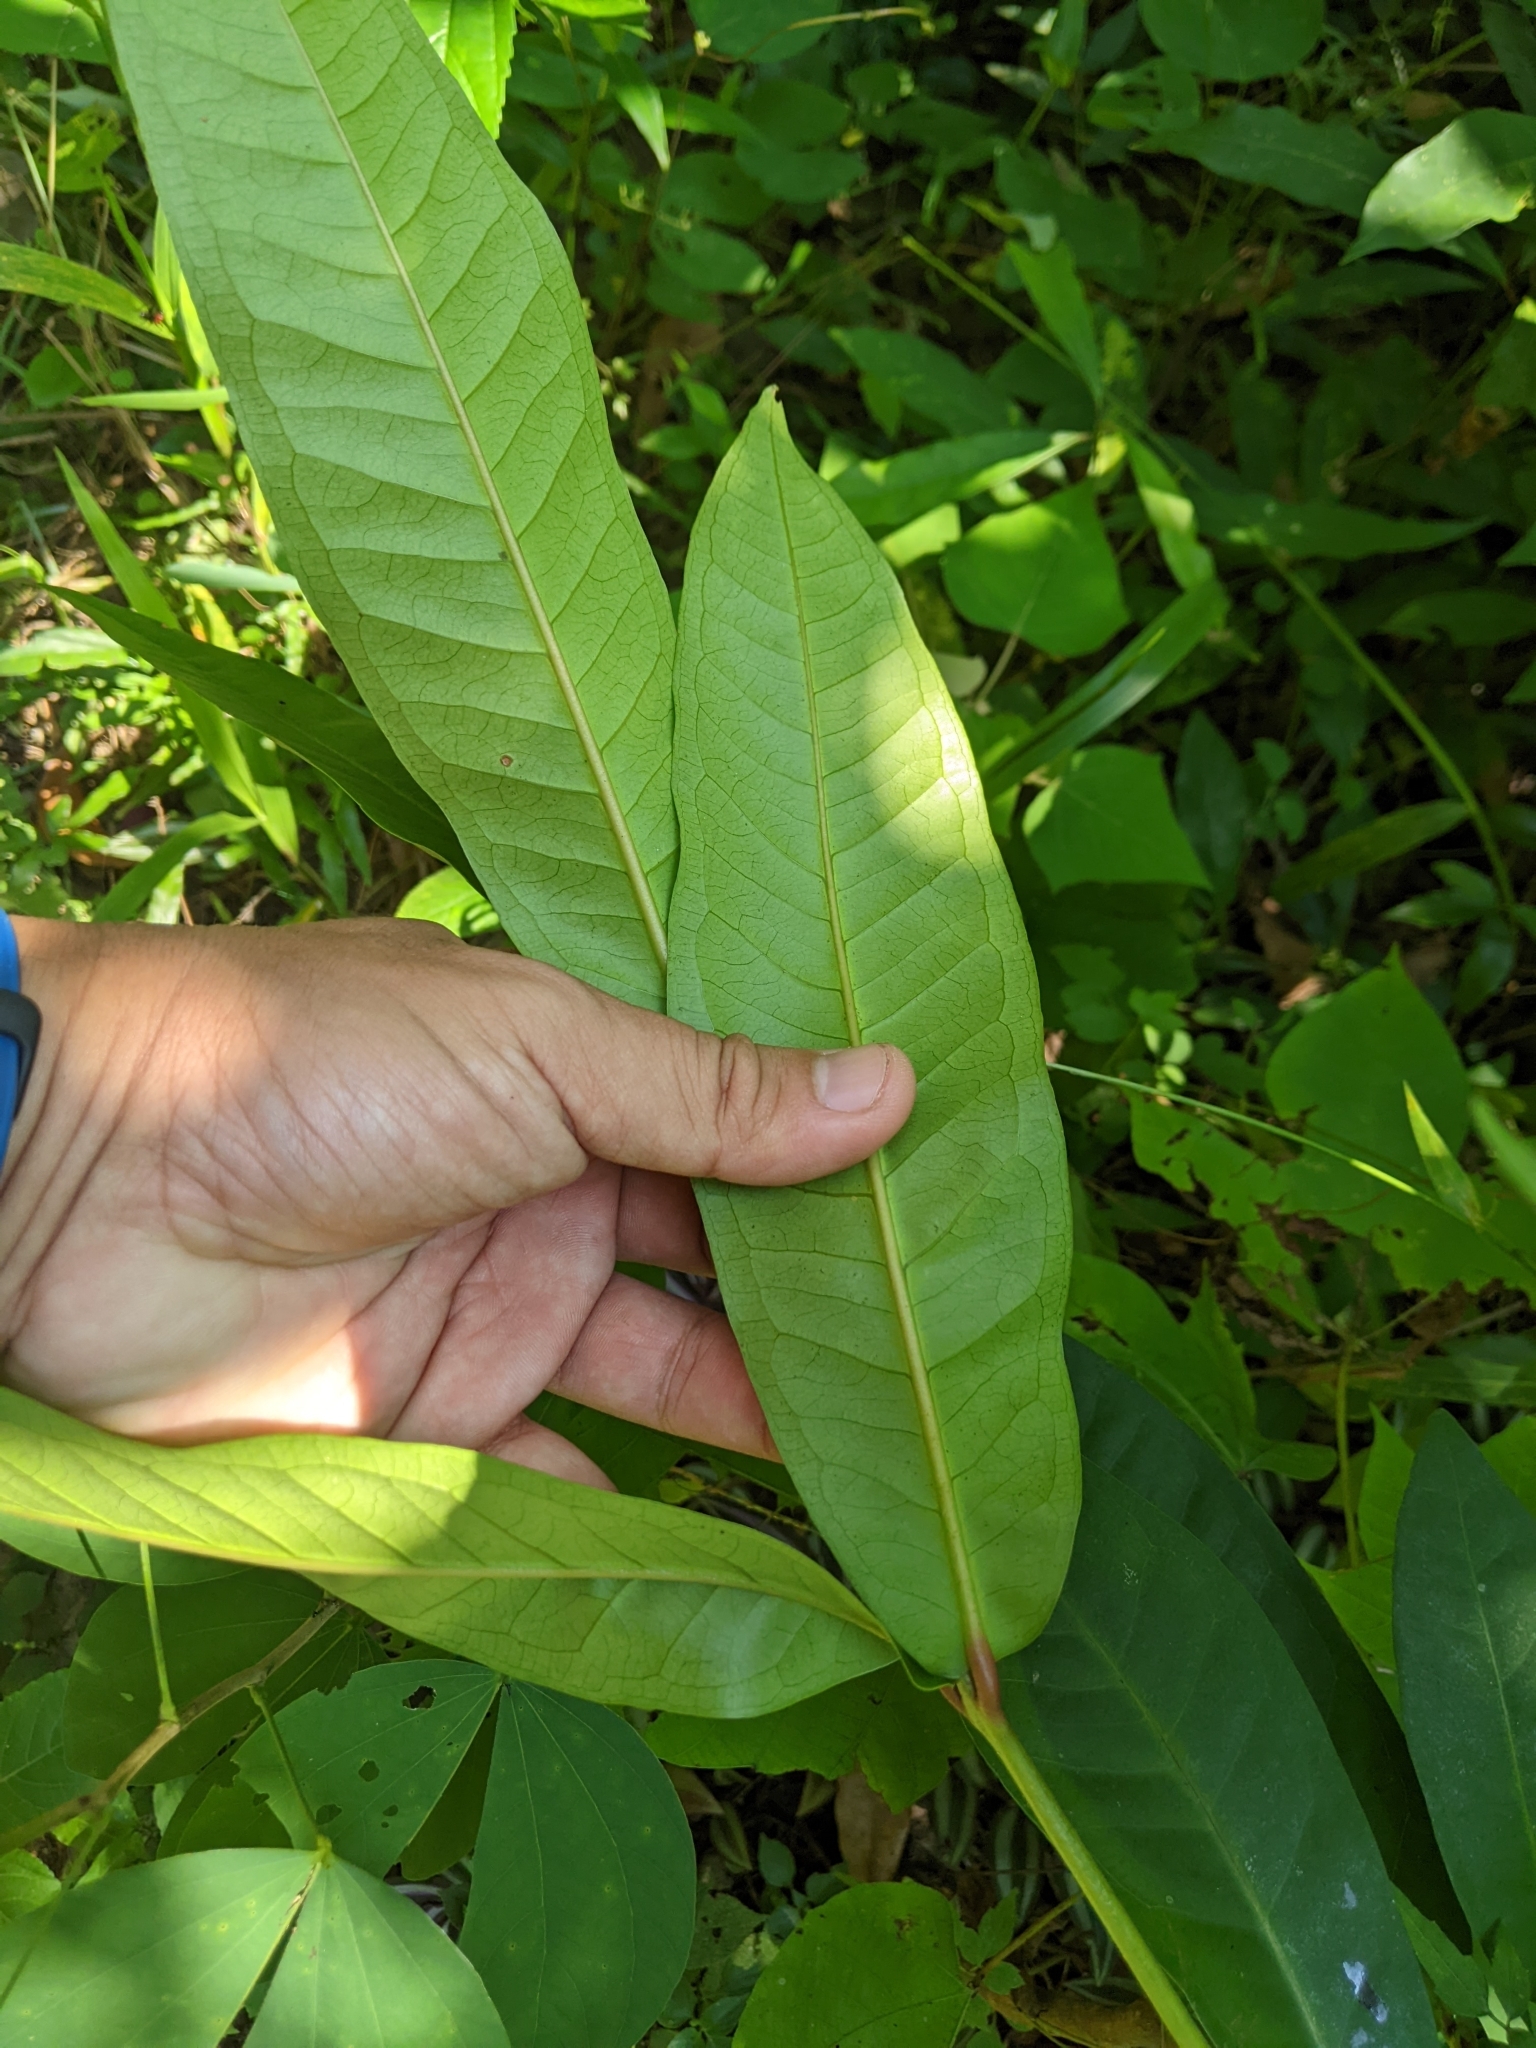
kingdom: Plantae
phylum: Tracheophyta
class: Magnoliopsida
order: Myrtales
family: Myrtaceae
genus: Syzygium
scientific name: Syzygium samarangense
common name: Semarang rose-apple
